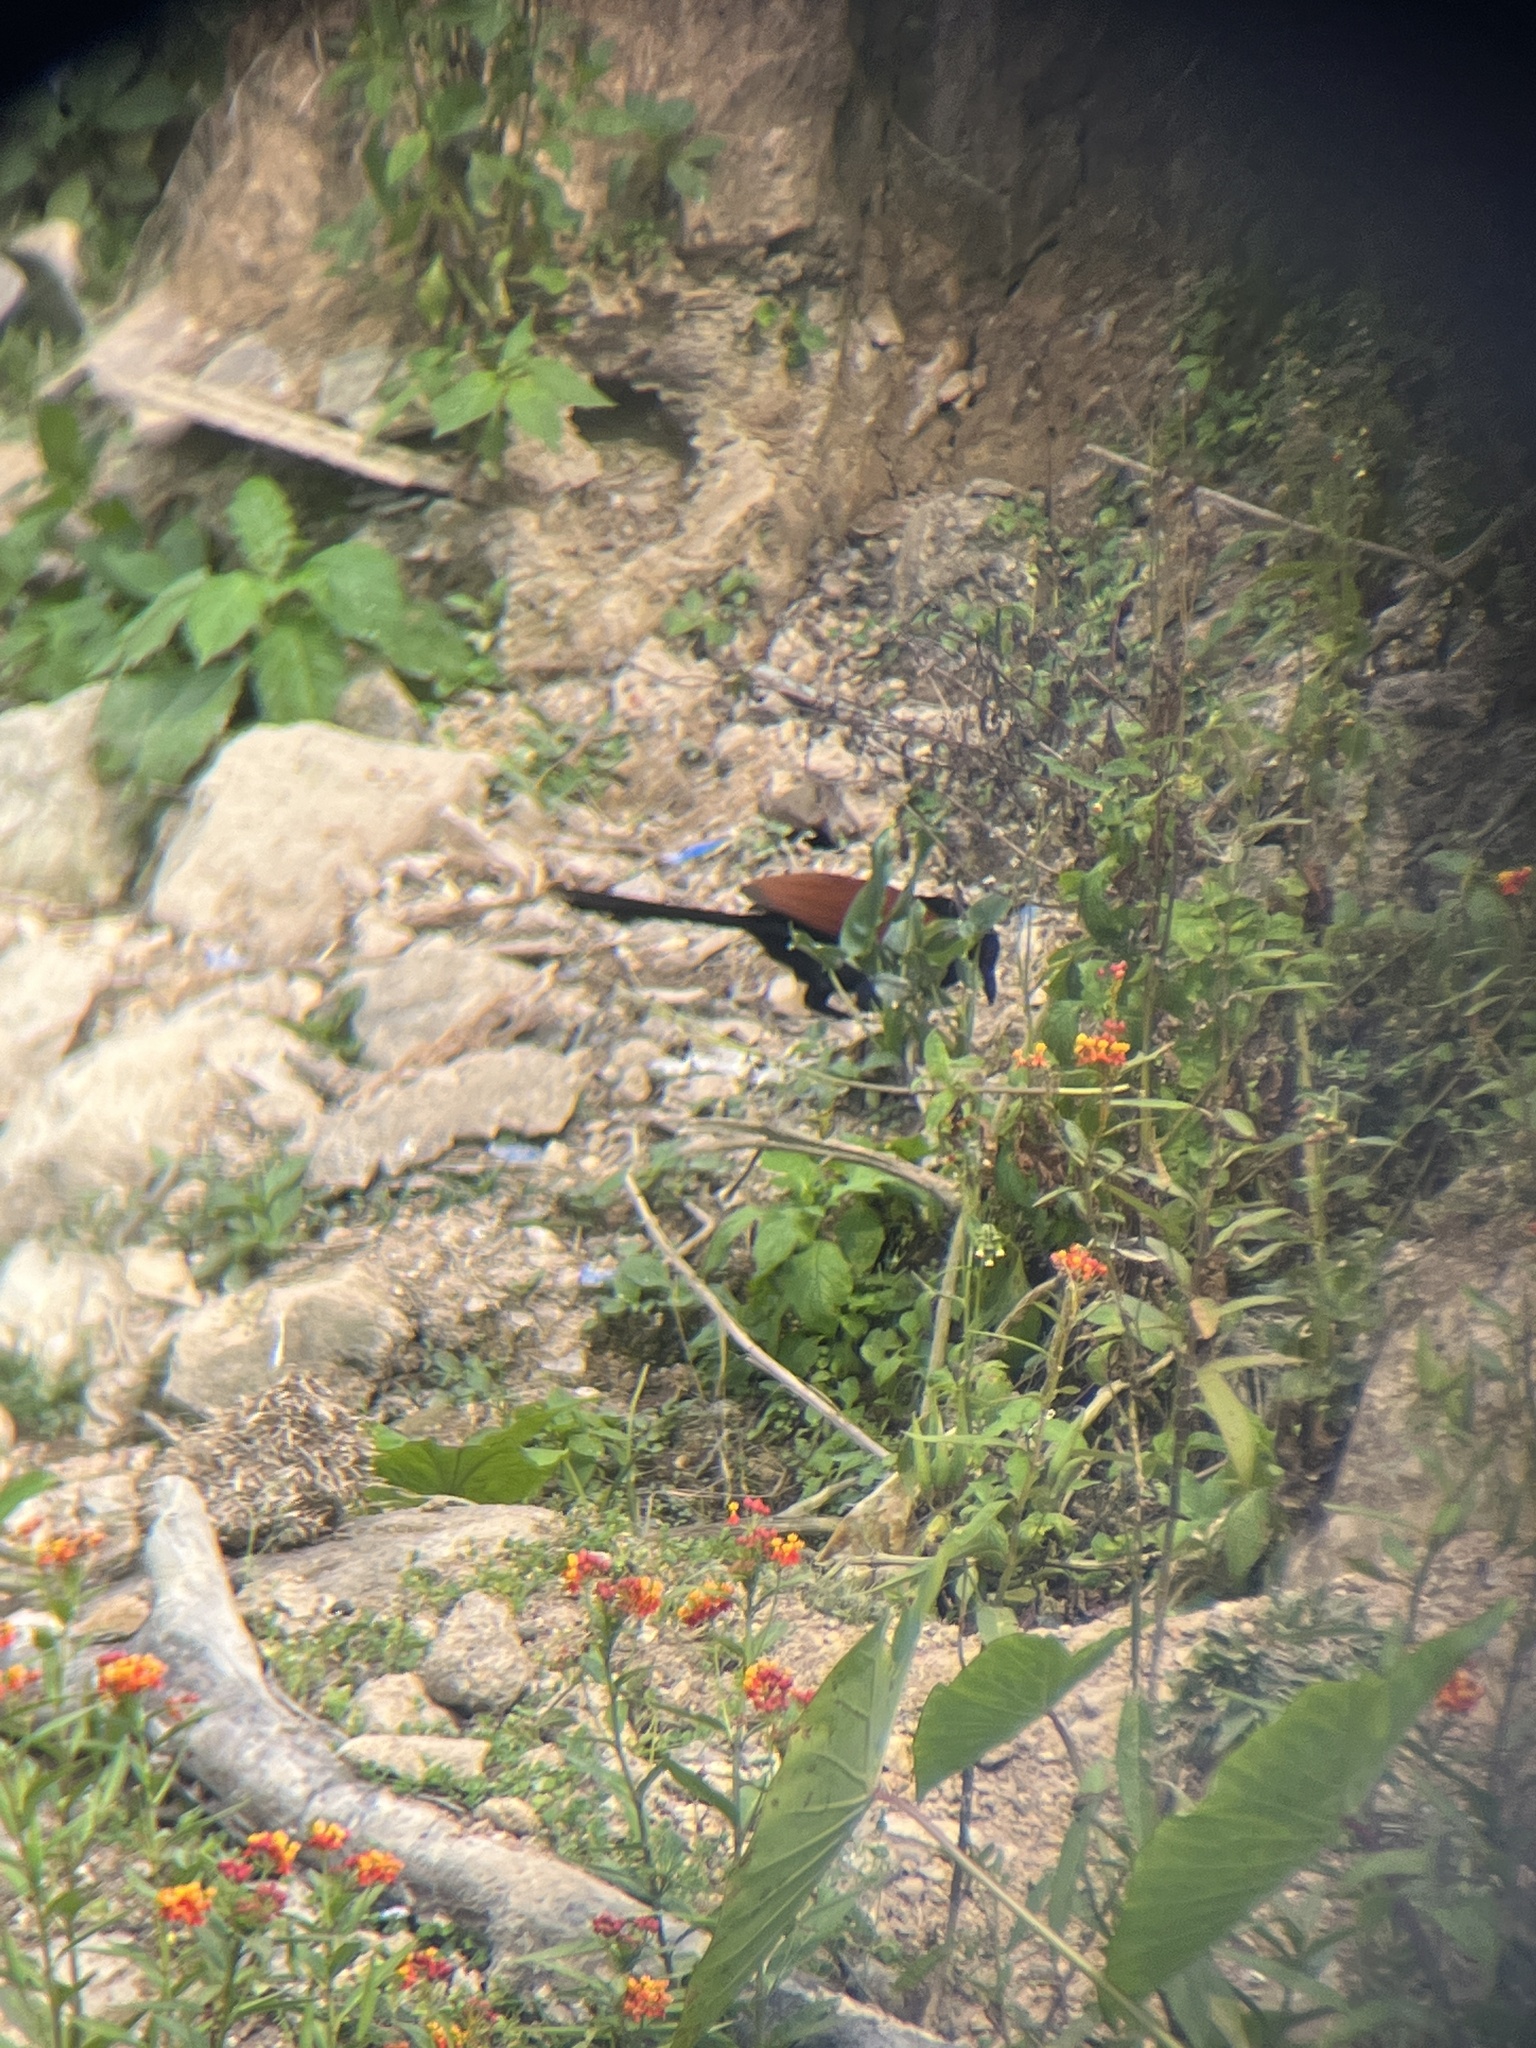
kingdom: Animalia
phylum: Chordata
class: Aves
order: Cuculiformes
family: Cuculidae
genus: Centropus
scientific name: Centropus sinensis
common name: Greater coucal
